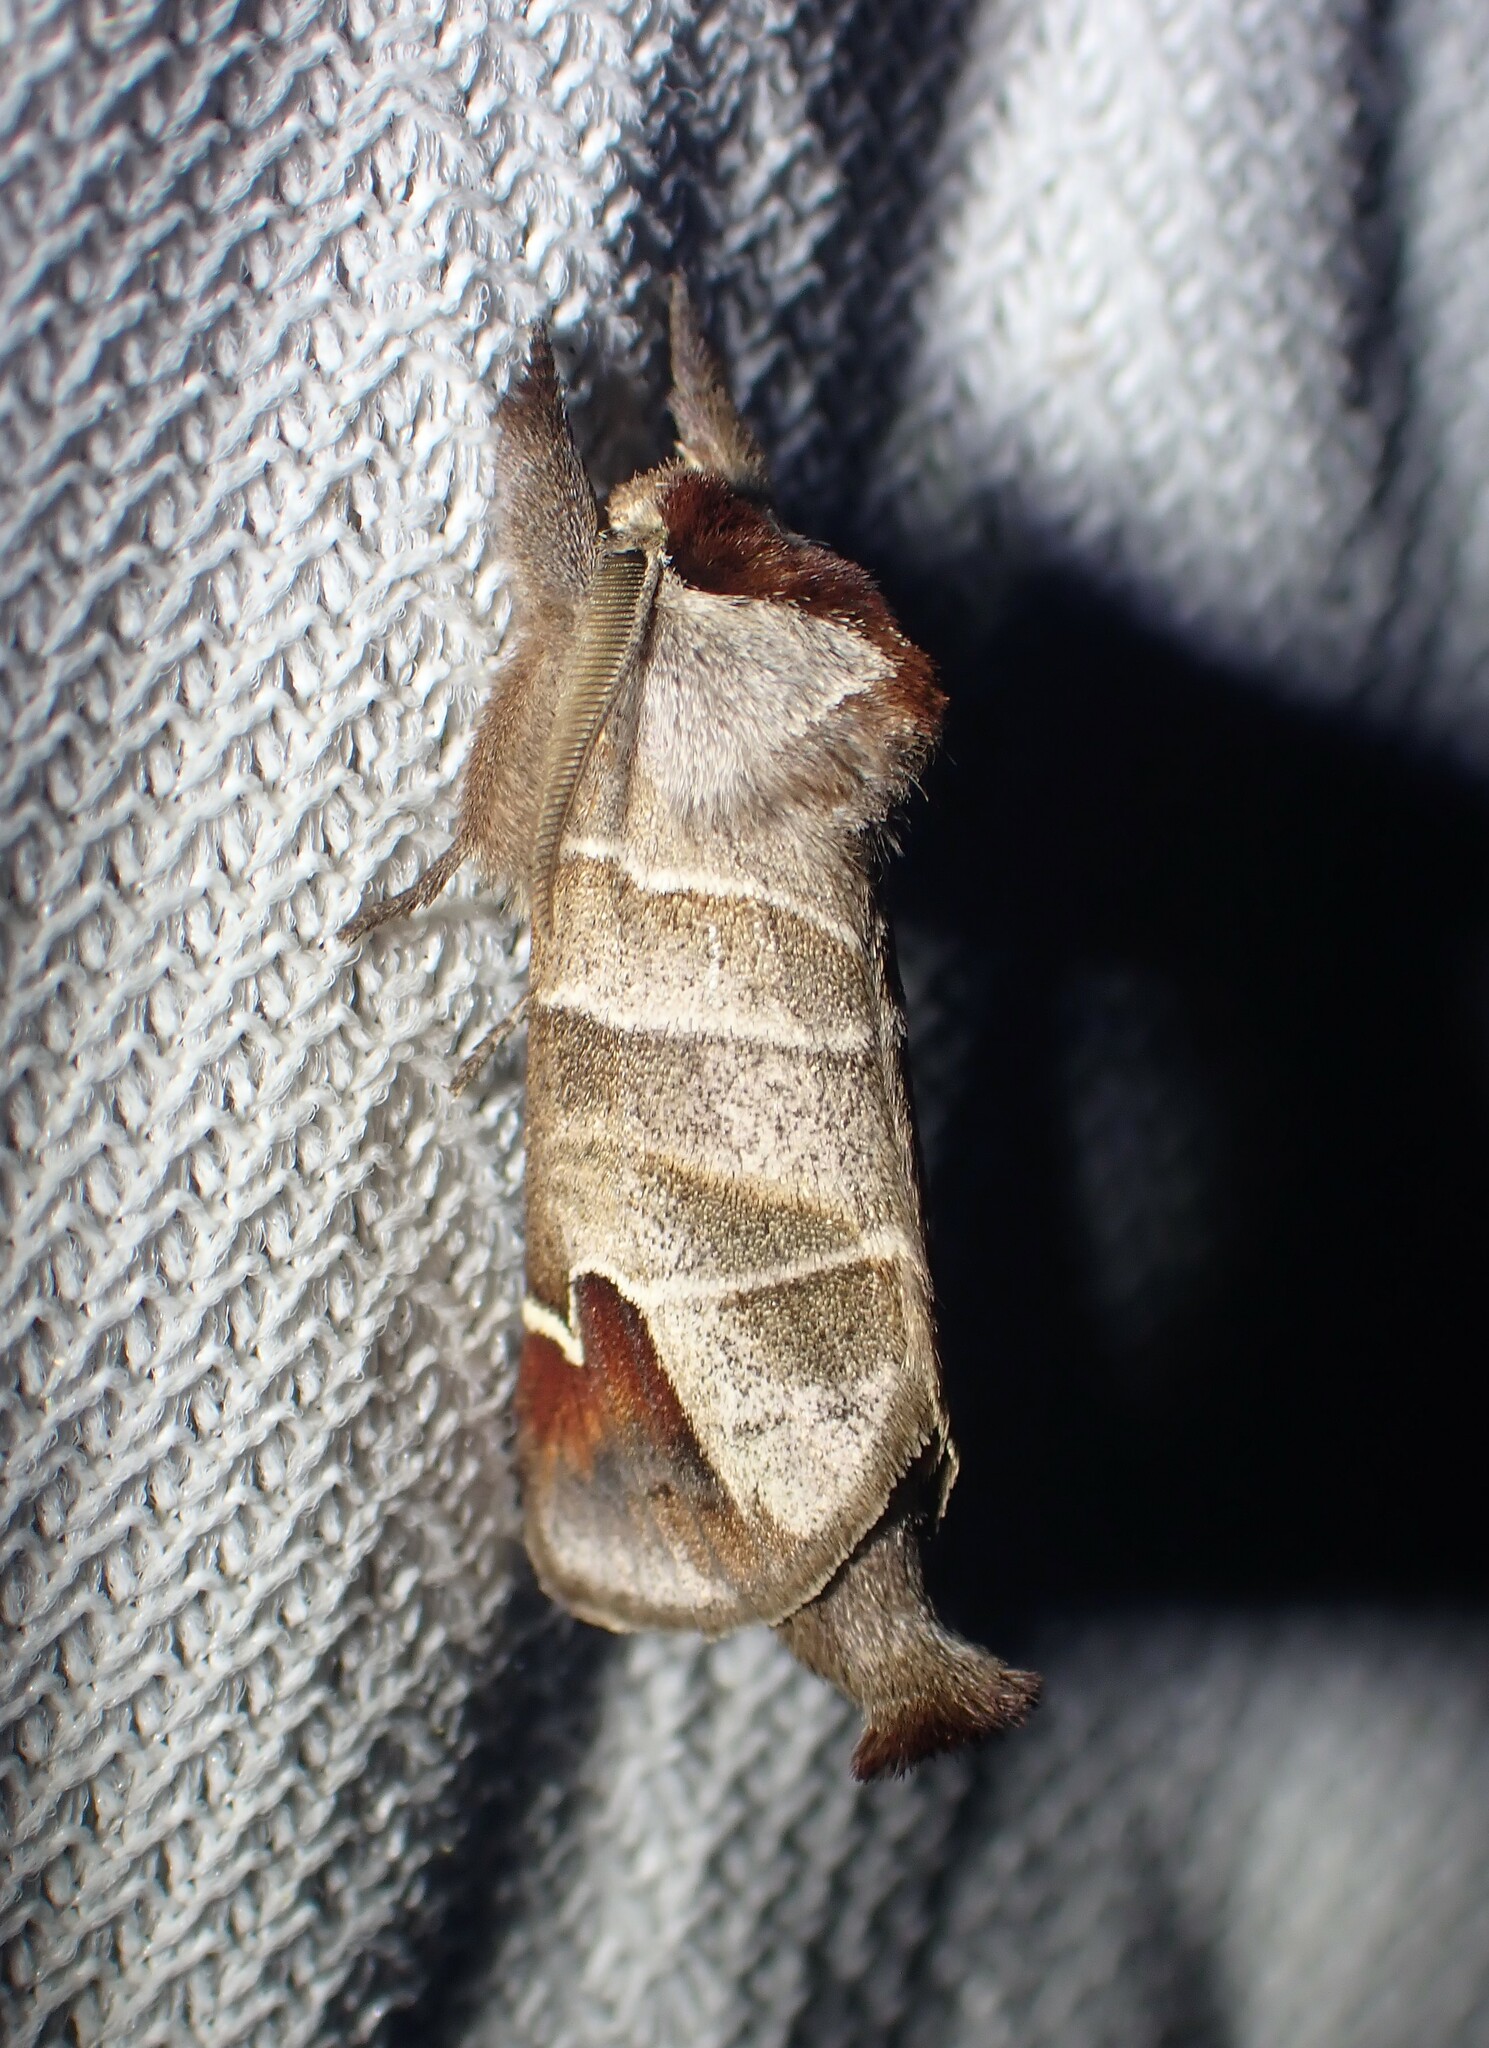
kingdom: Animalia
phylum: Arthropoda
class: Insecta
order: Lepidoptera
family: Notodontidae
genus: Clostera
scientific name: Clostera albosigma
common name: Sigmoid prominent
